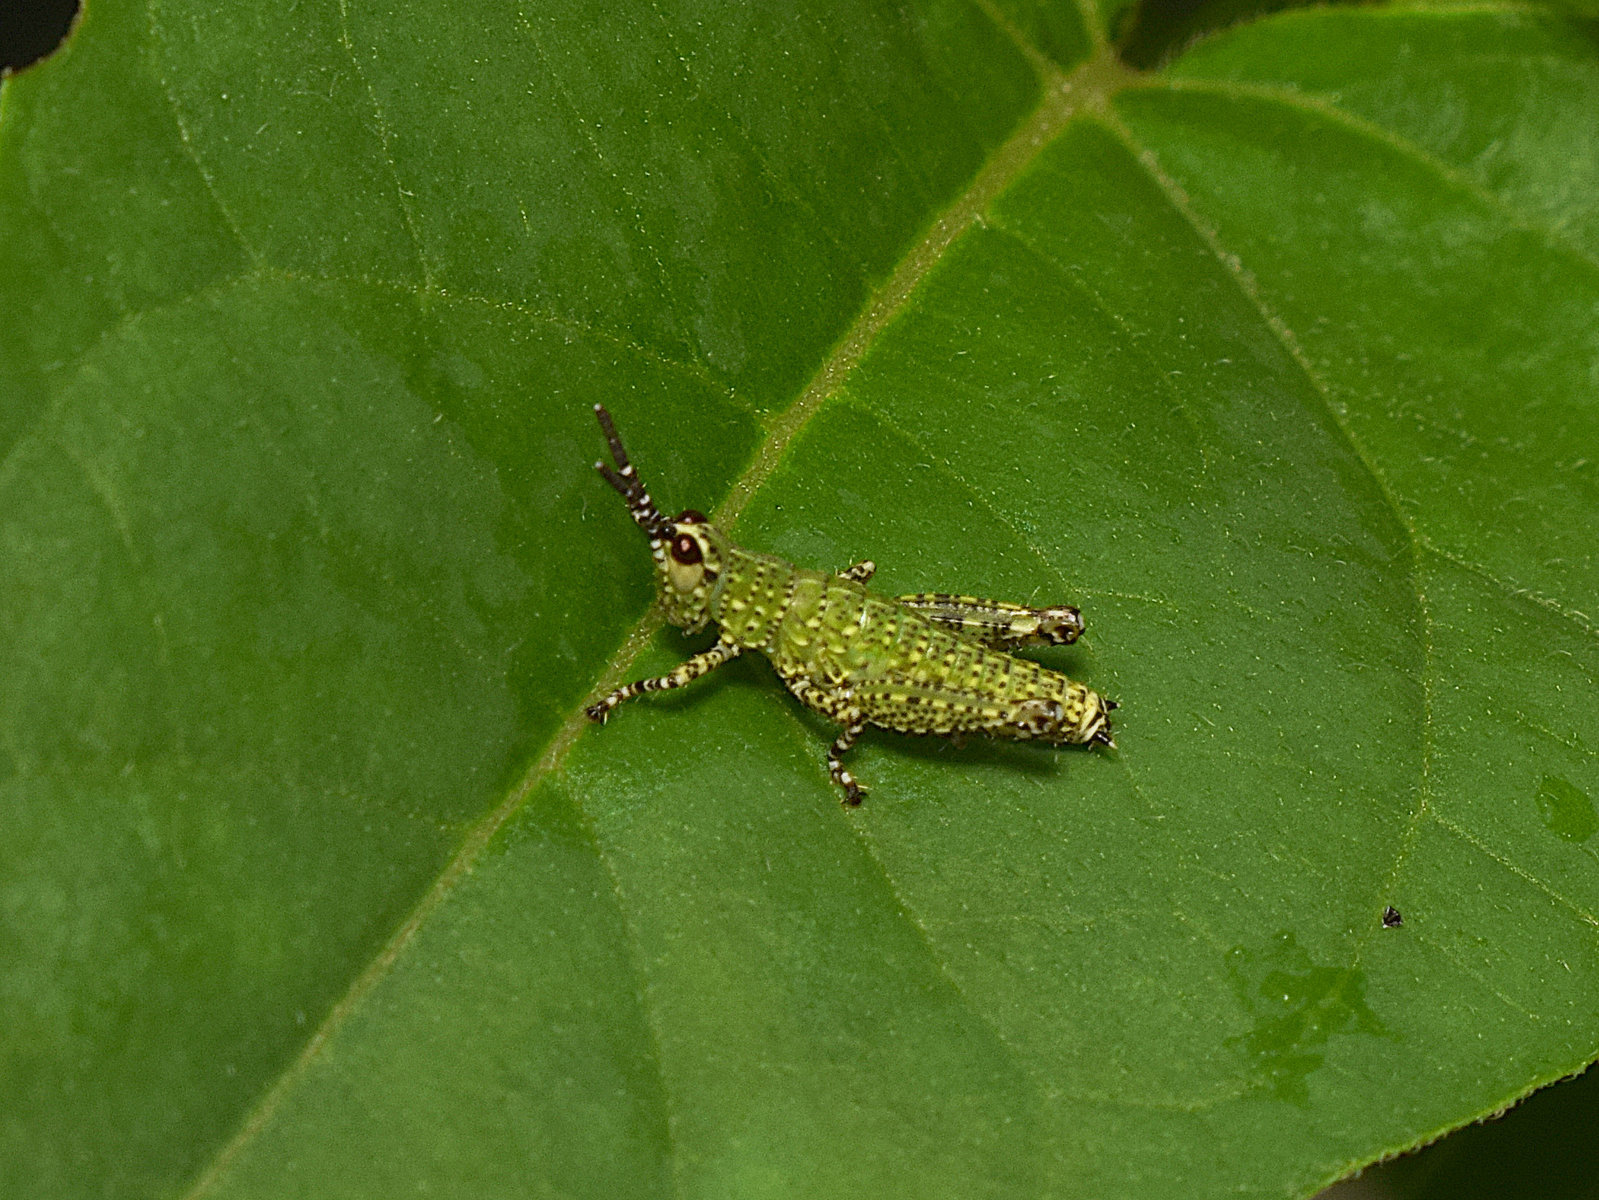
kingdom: Animalia
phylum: Arthropoda
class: Insecta
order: Orthoptera
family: Acrididae
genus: Xenocatantops
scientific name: Xenocatantops humile
